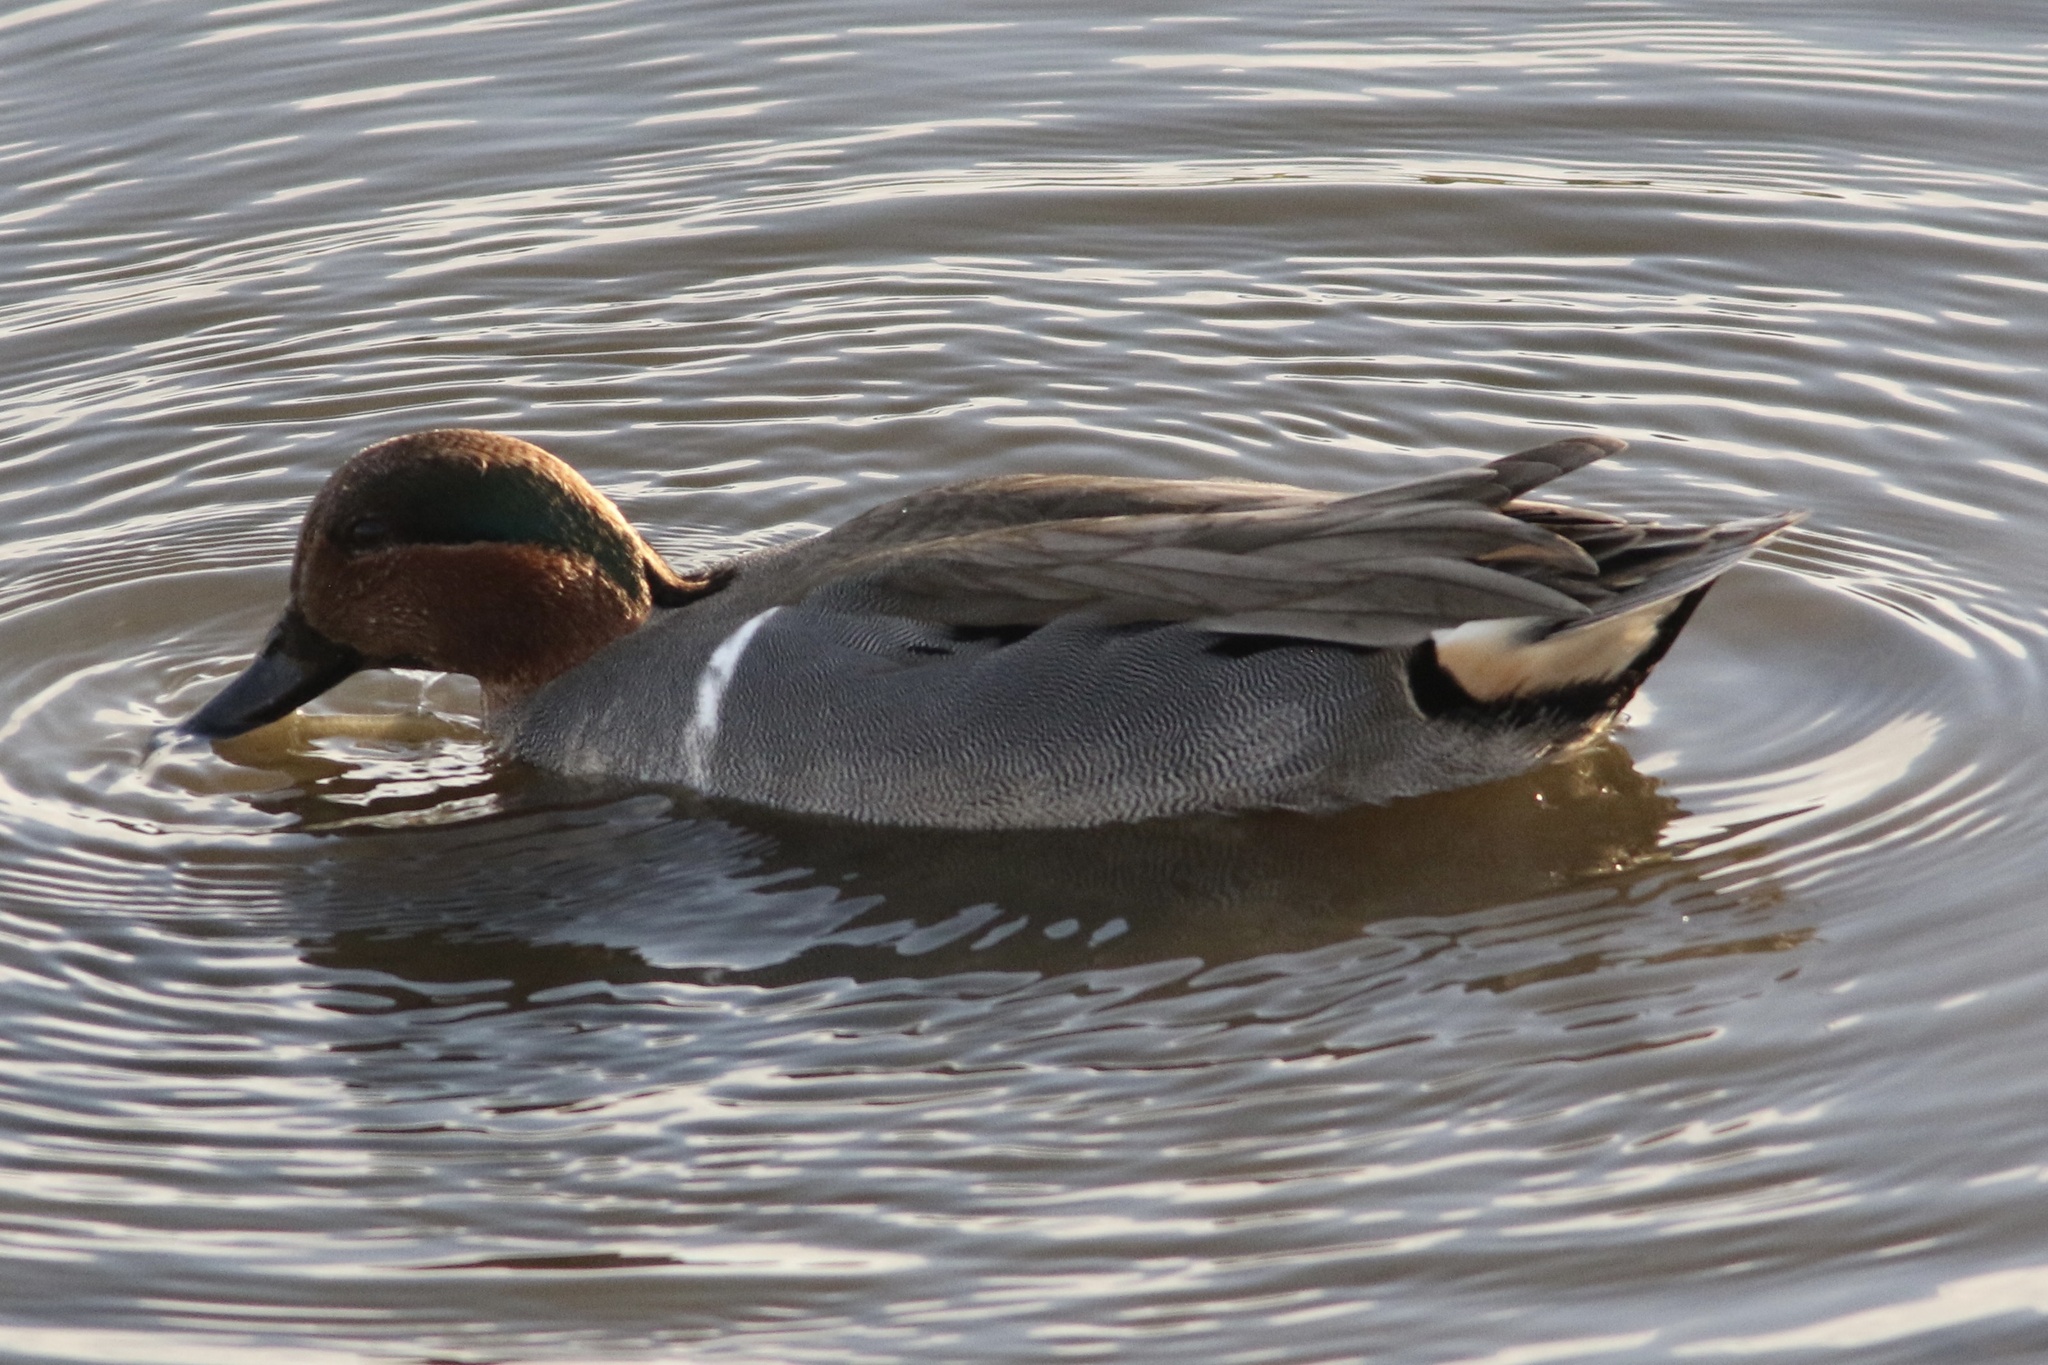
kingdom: Animalia
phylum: Chordata
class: Aves
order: Anseriformes
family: Anatidae
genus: Anas
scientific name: Anas crecca
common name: Eurasian teal
